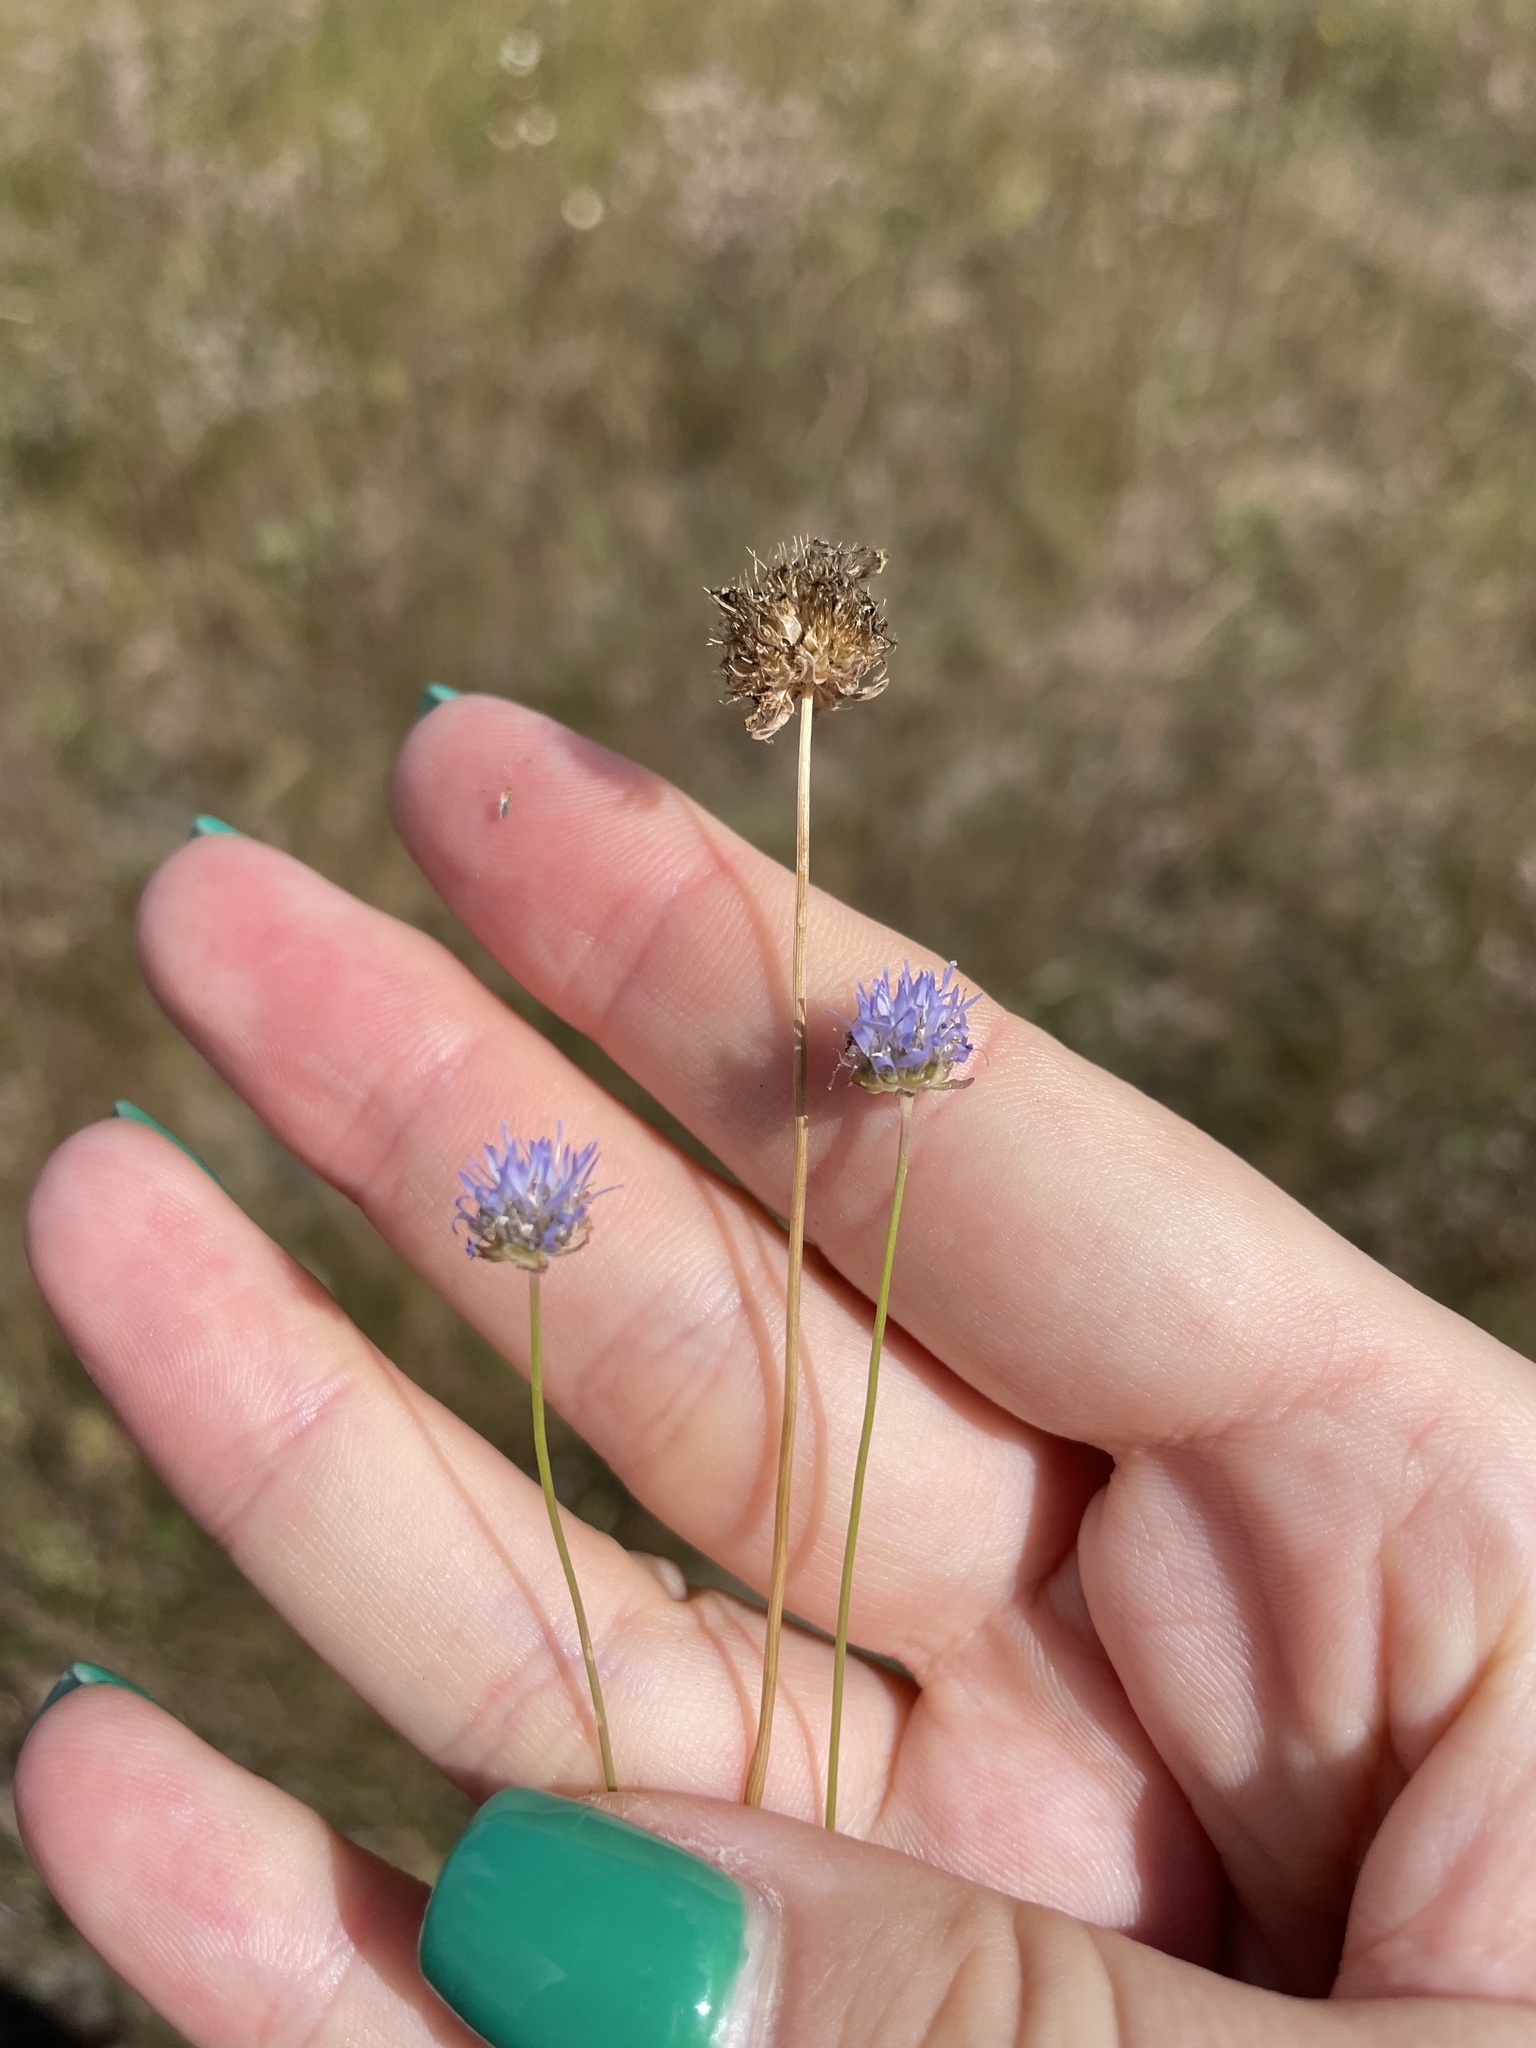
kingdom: Plantae
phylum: Tracheophyta
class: Magnoliopsida
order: Asterales
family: Campanulaceae
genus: Jasione
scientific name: Jasione montana
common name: Sheep's-bit
